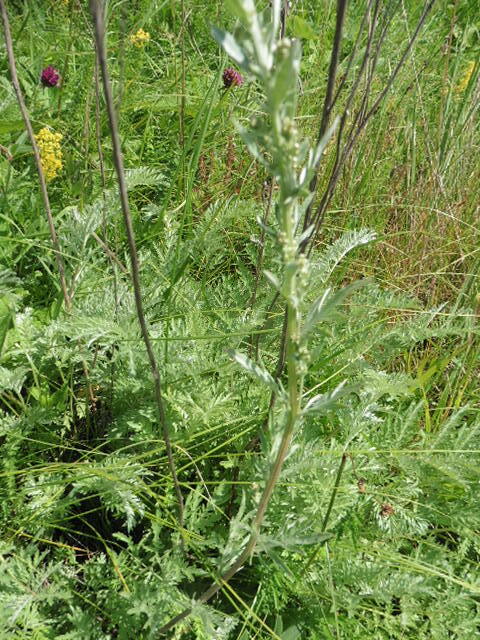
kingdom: Plantae
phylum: Tracheophyta
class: Magnoliopsida
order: Asterales
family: Asteraceae
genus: Artemisia
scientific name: Artemisia armeniaca
